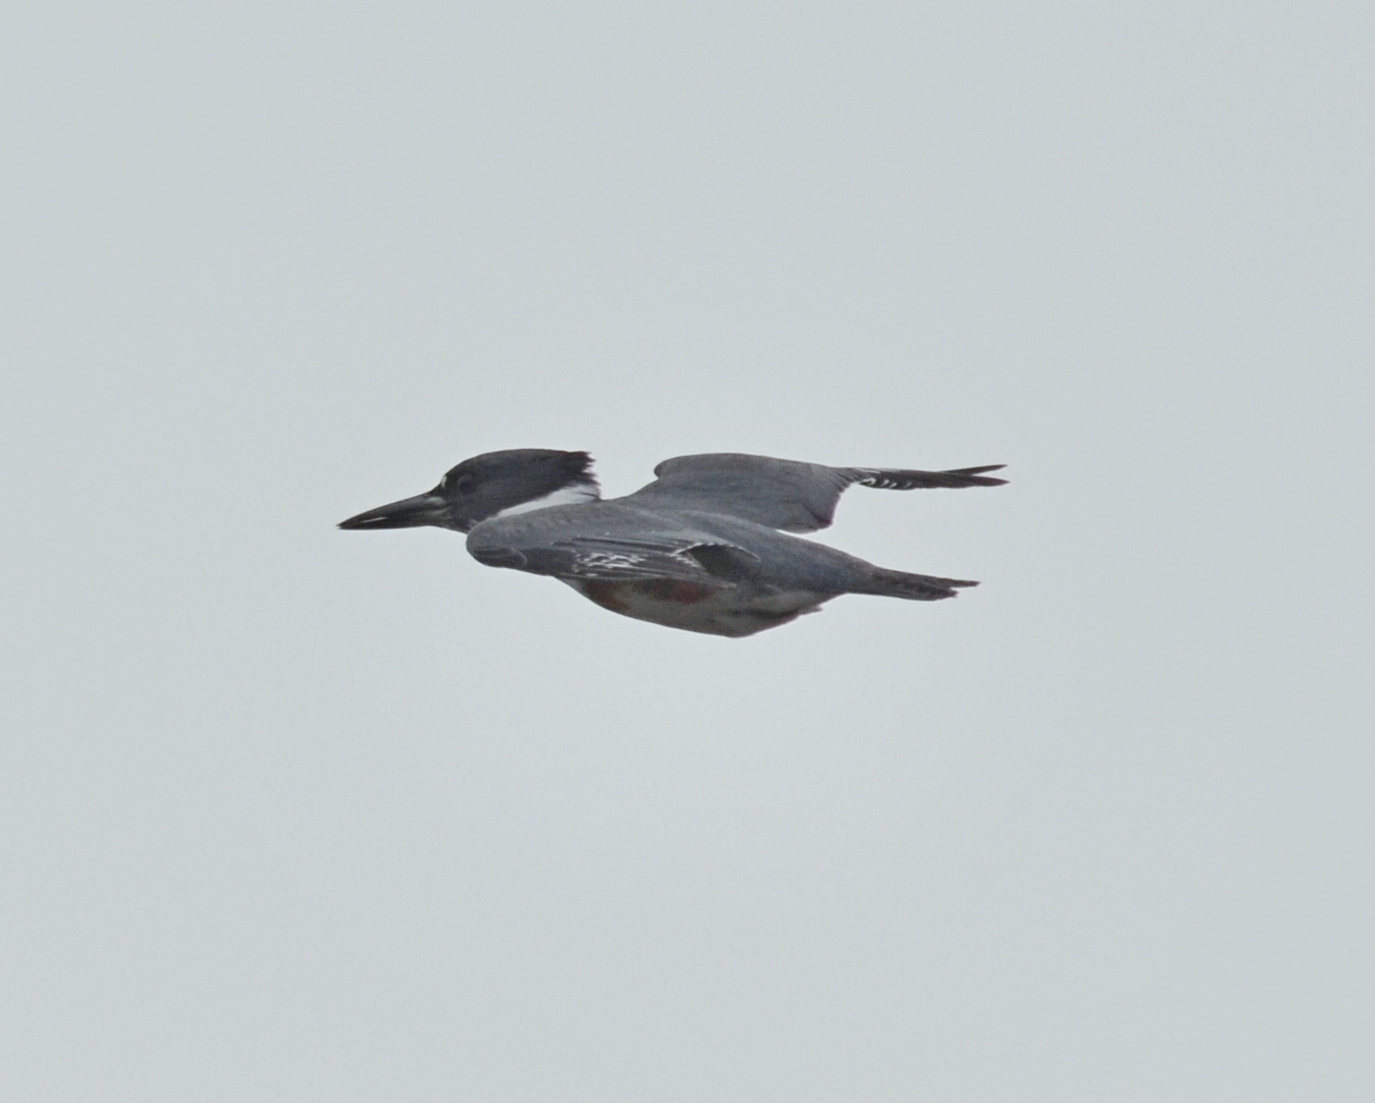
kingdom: Animalia
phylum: Chordata
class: Aves
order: Coraciiformes
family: Alcedinidae
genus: Megaceryle
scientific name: Megaceryle alcyon
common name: Belted kingfisher
